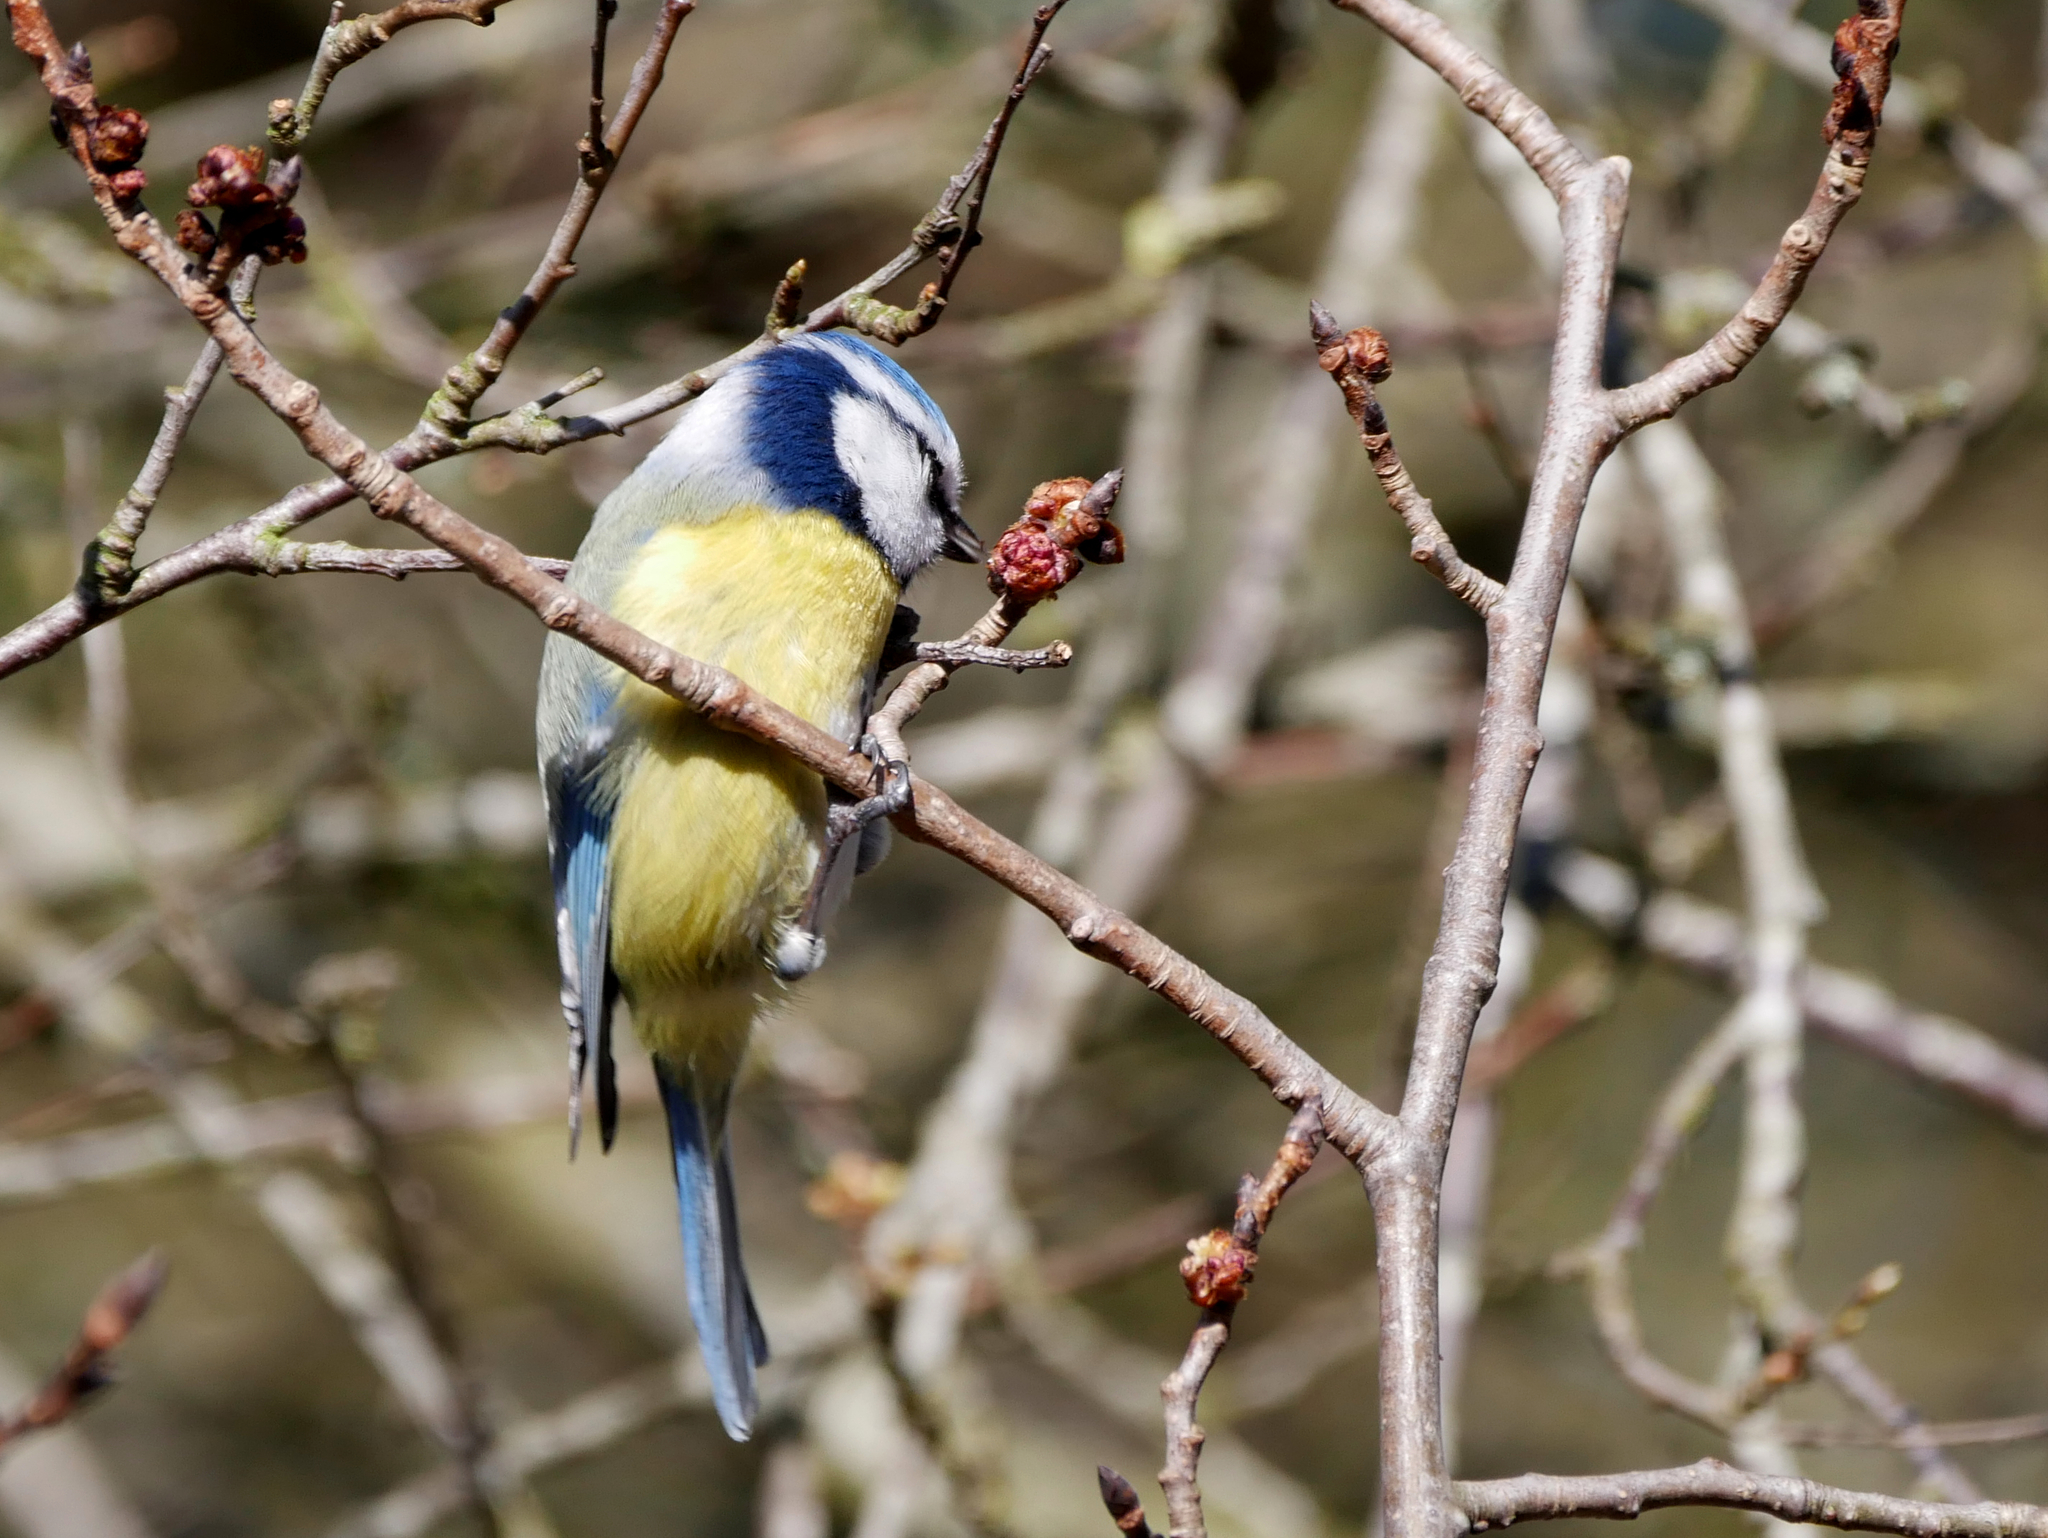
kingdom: Animalia
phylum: Chordata
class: Aves
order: Passeriformes
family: Paridae
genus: Cyanistes
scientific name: Cyanistes caeruleus
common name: Eurasian blue tit
